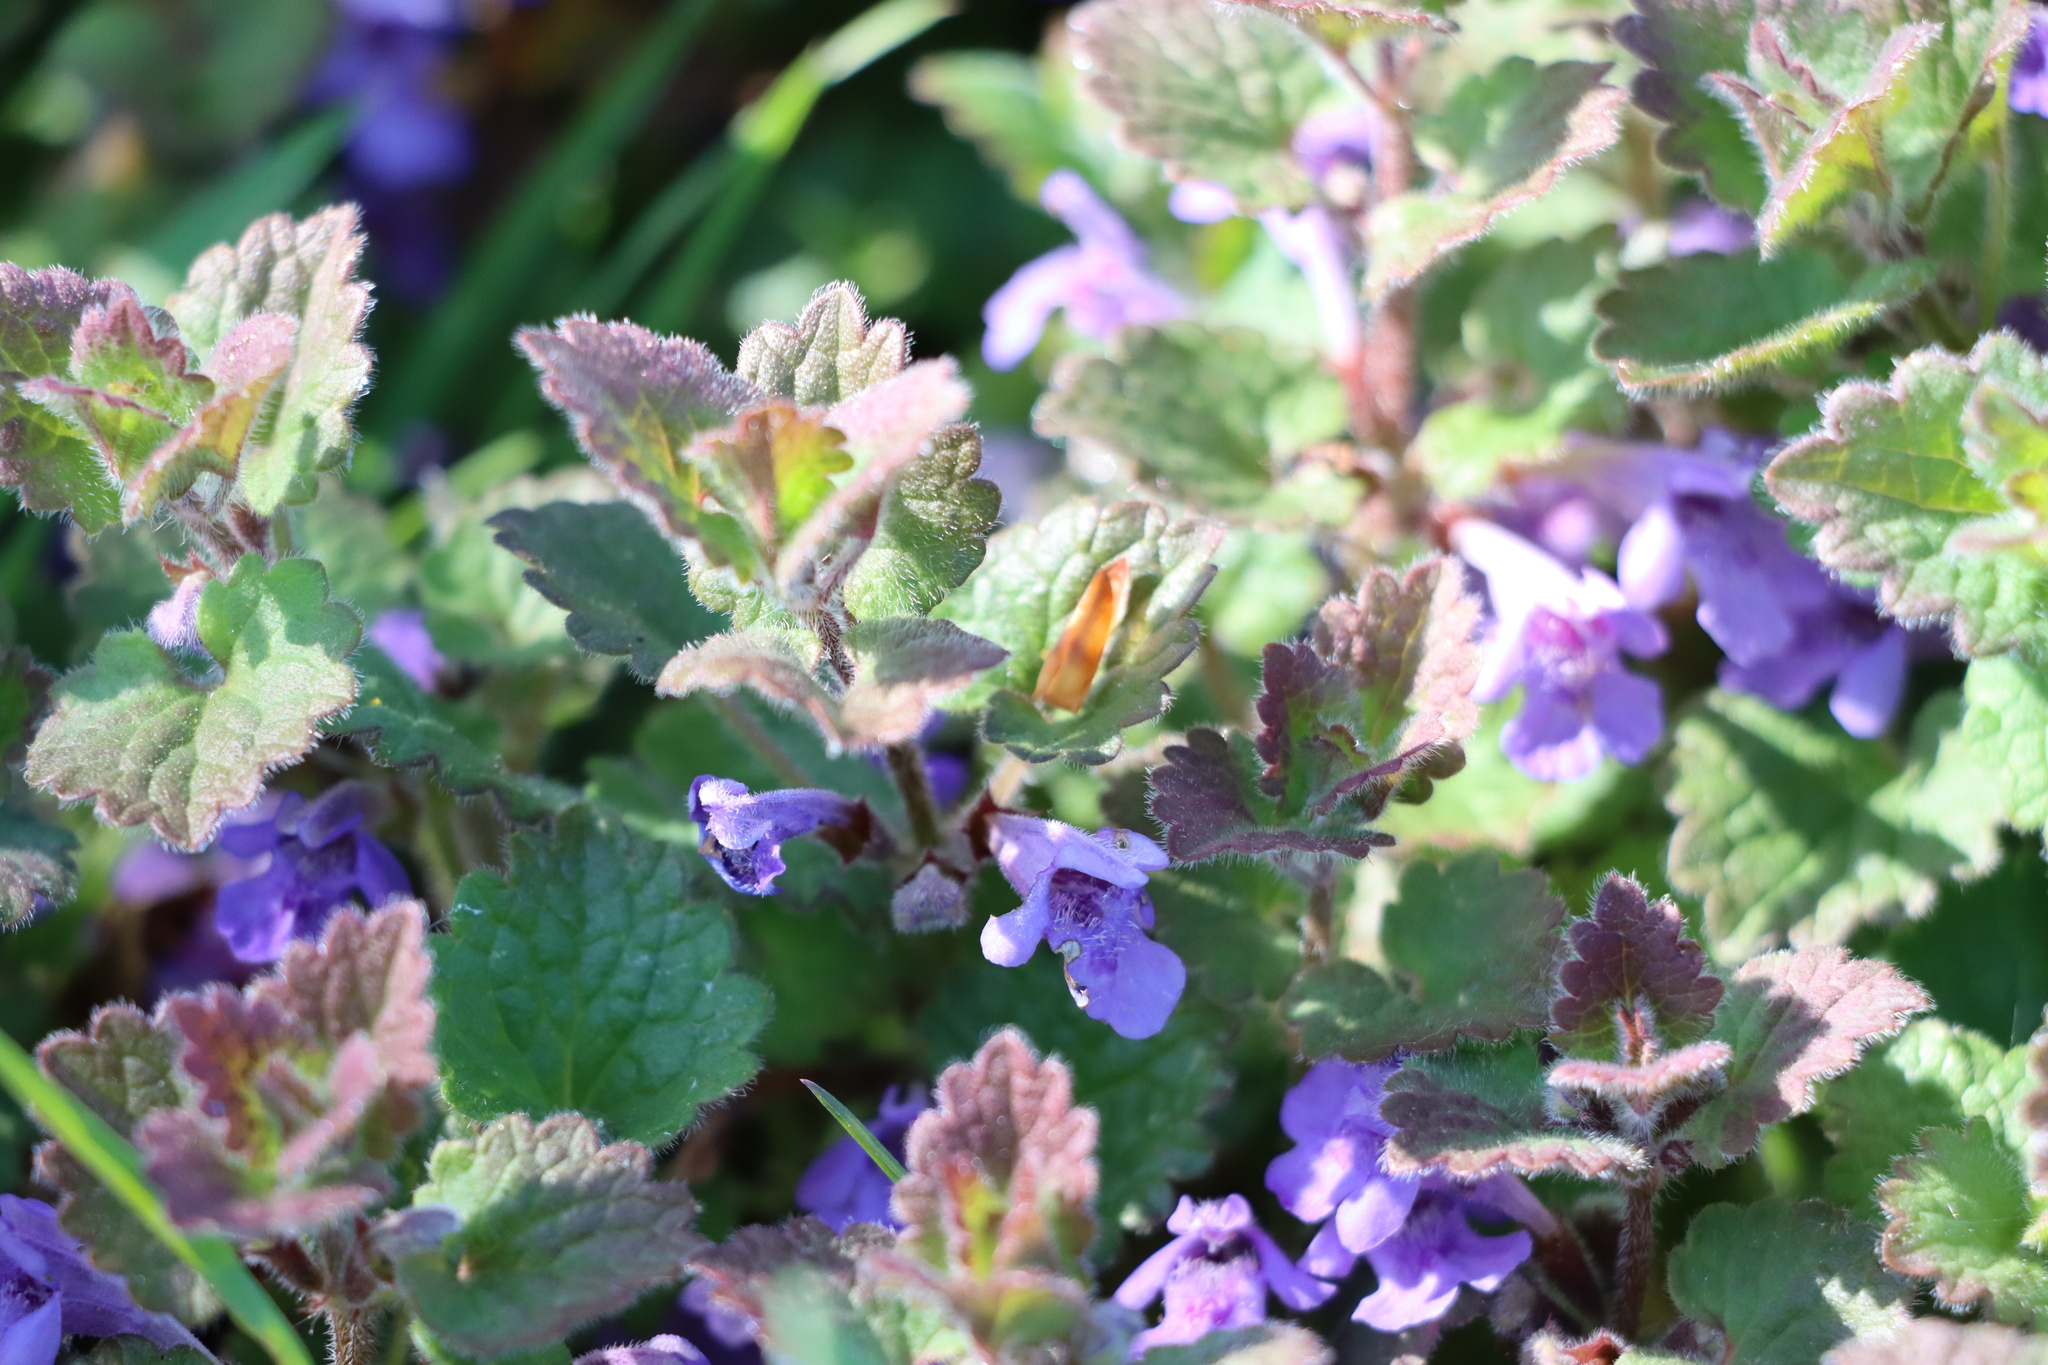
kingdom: Plantae
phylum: Tracheophyta
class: Magnoliopsida
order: Lamiales
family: Lamiaceae
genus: Glechoma
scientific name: Glechoma hederacea
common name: Ground ivy
